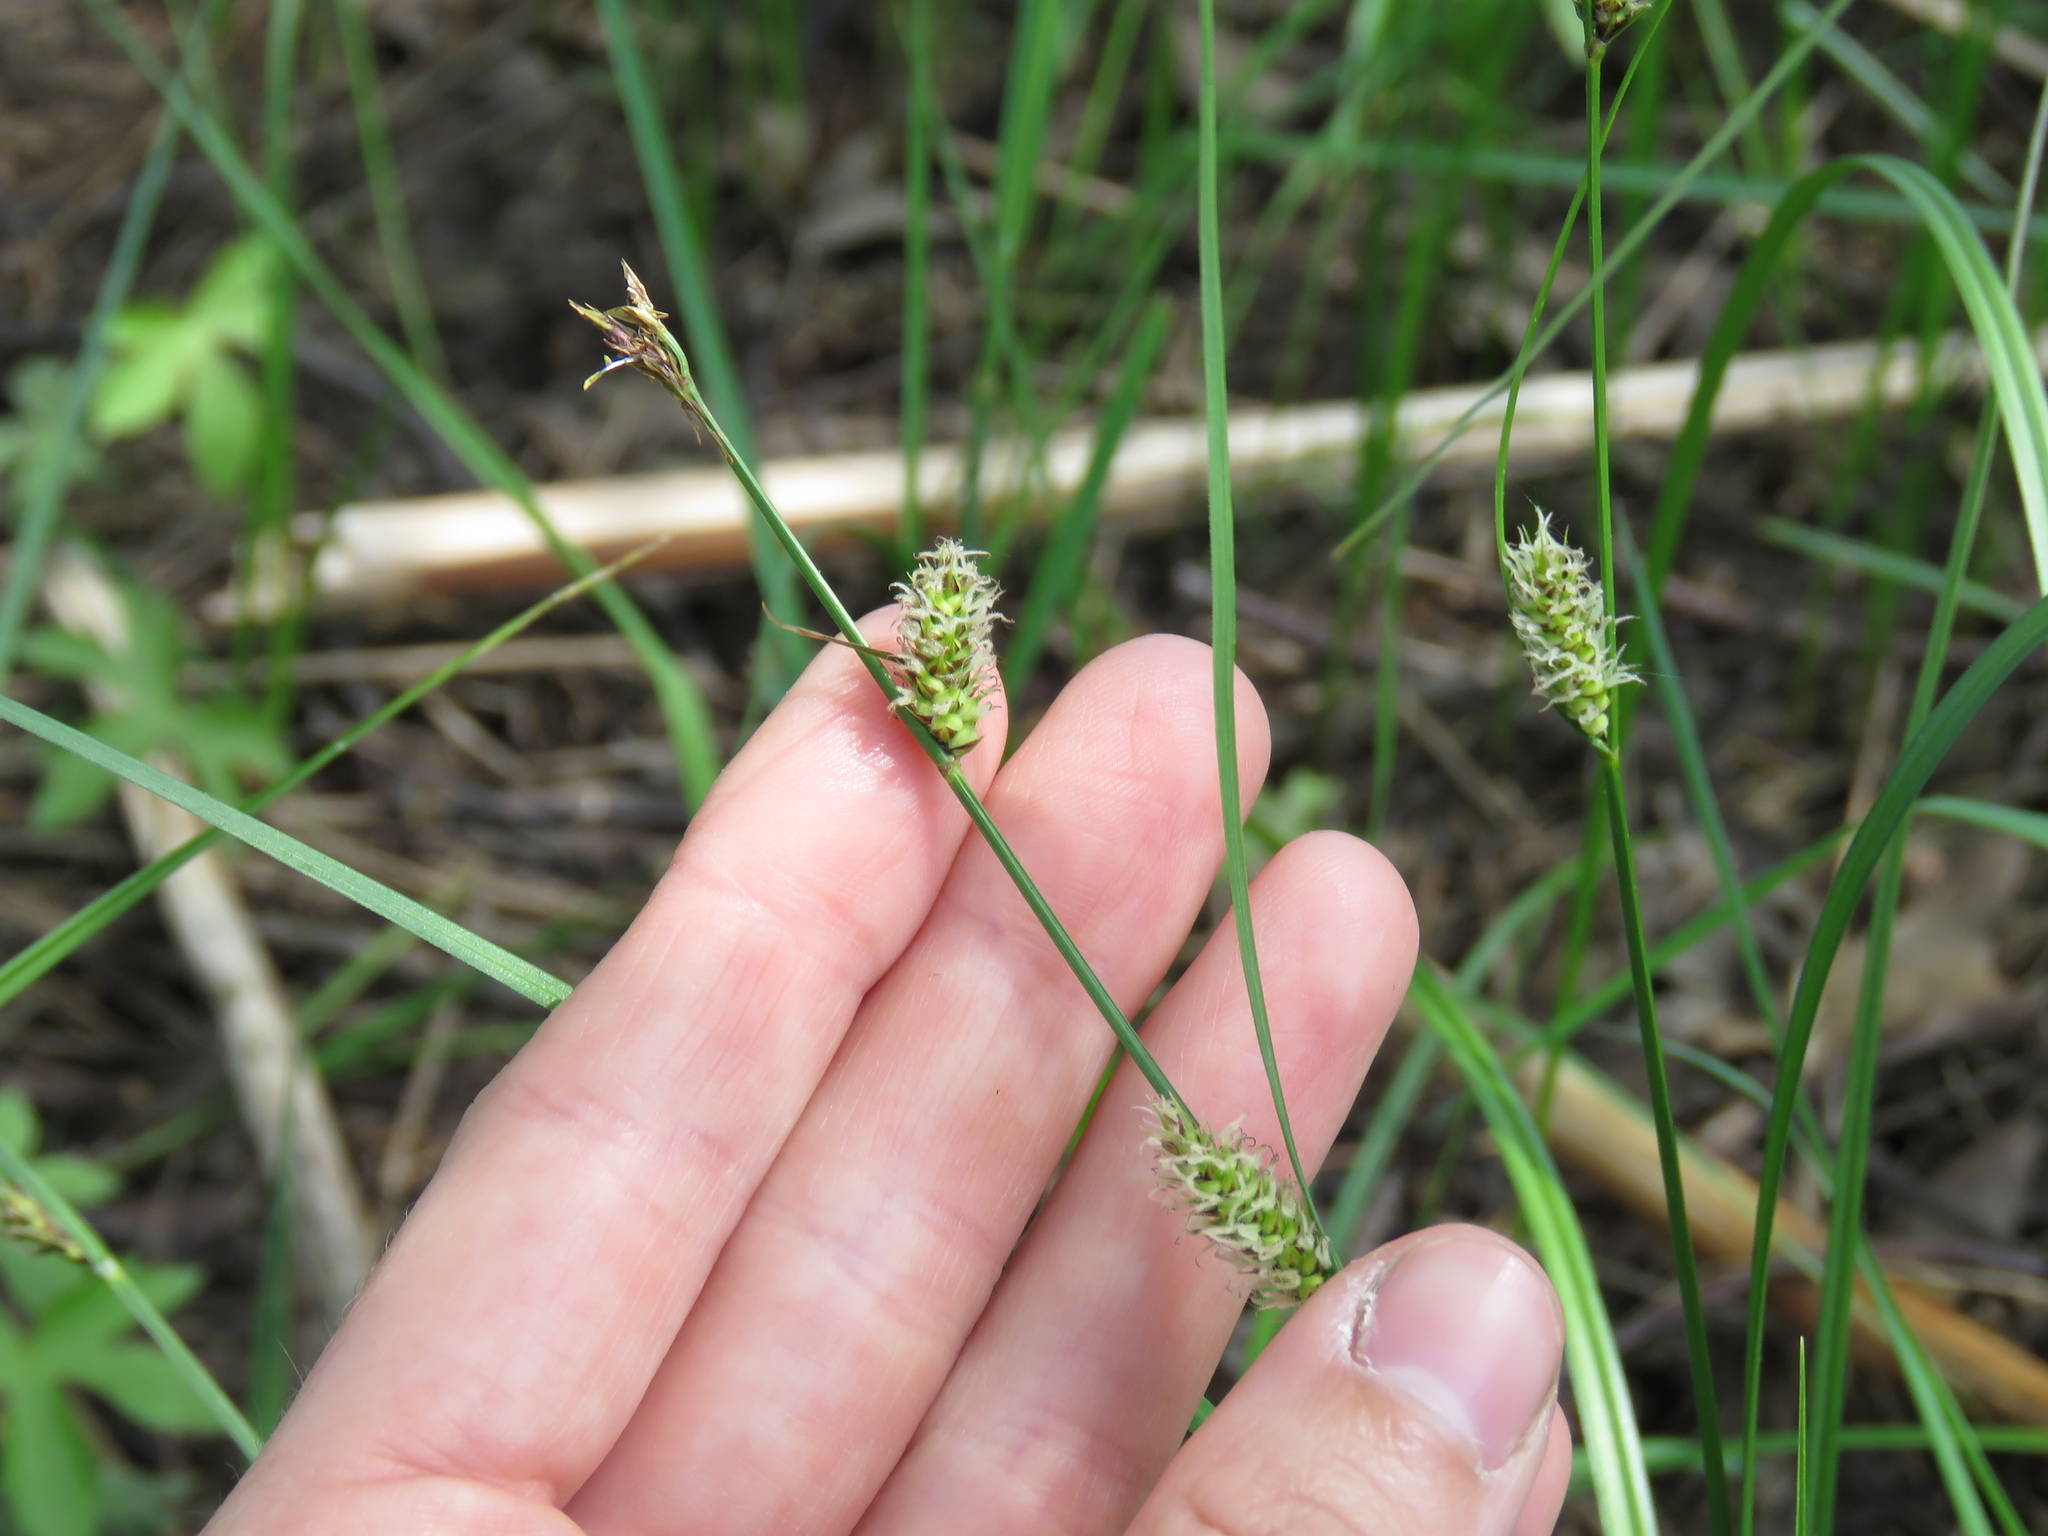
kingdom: Plantae
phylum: Tracheophyta
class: Liliopsida
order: Poales
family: Cyperaceae
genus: Carex
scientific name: Carex buxbaumii
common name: Club sedge
